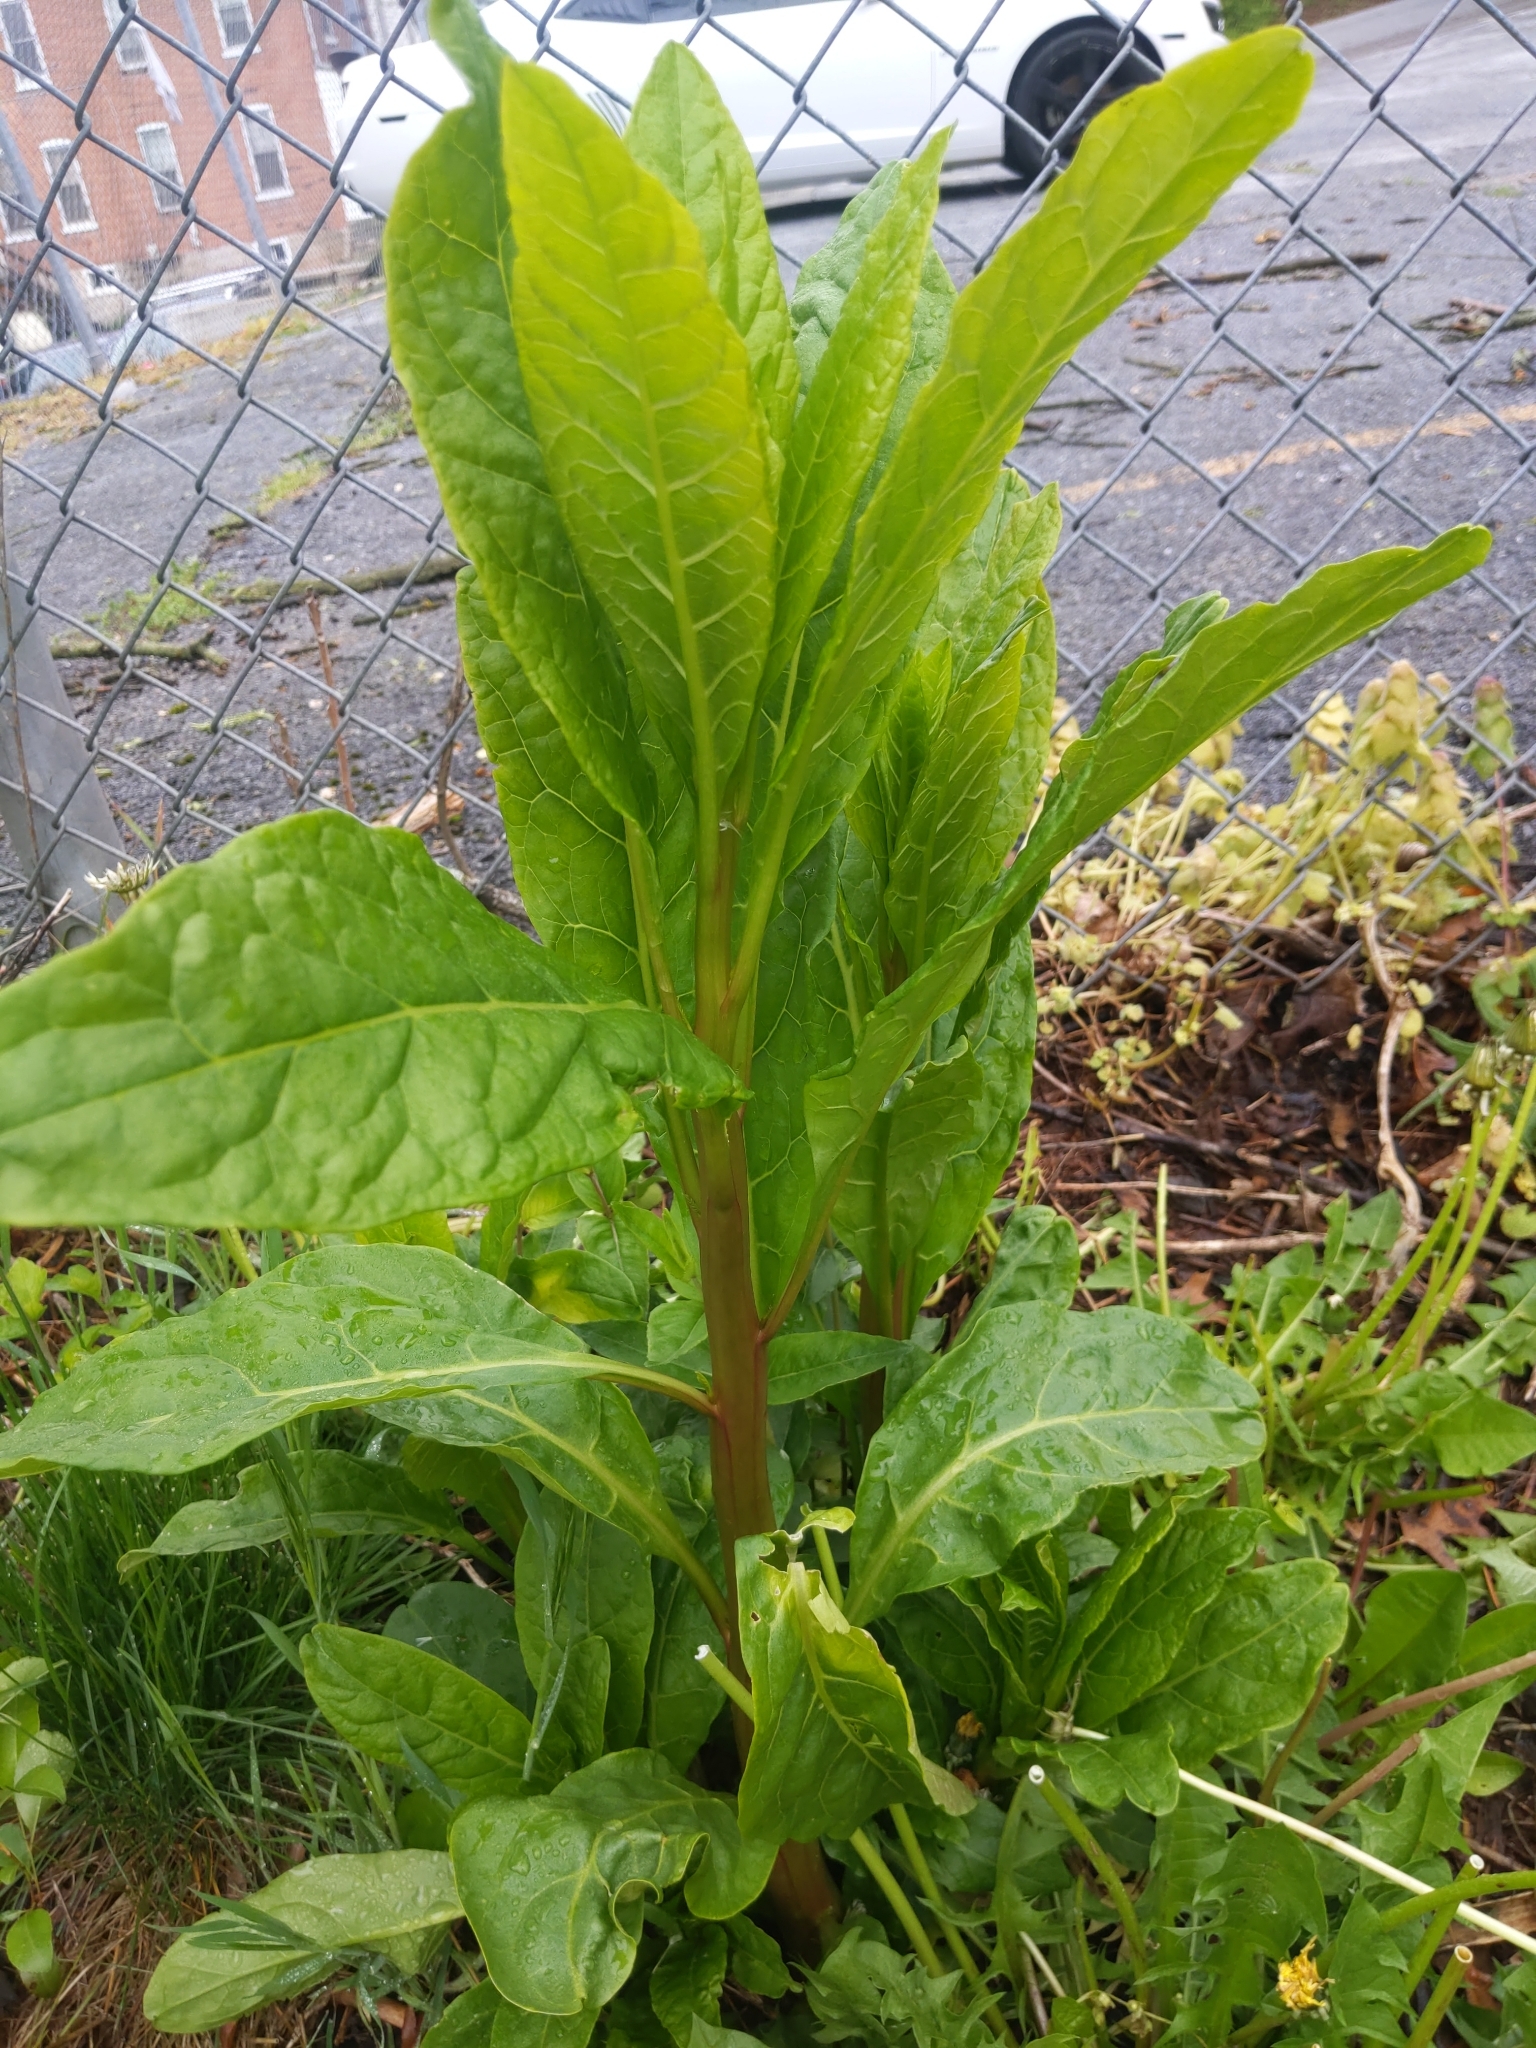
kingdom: Plantae
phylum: Tracheophyta
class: Magnoliopsida
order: Caryophyllales
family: Phytolaccaceae
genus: Phytolacca
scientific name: Phytolacca americana
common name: American pokeweed
